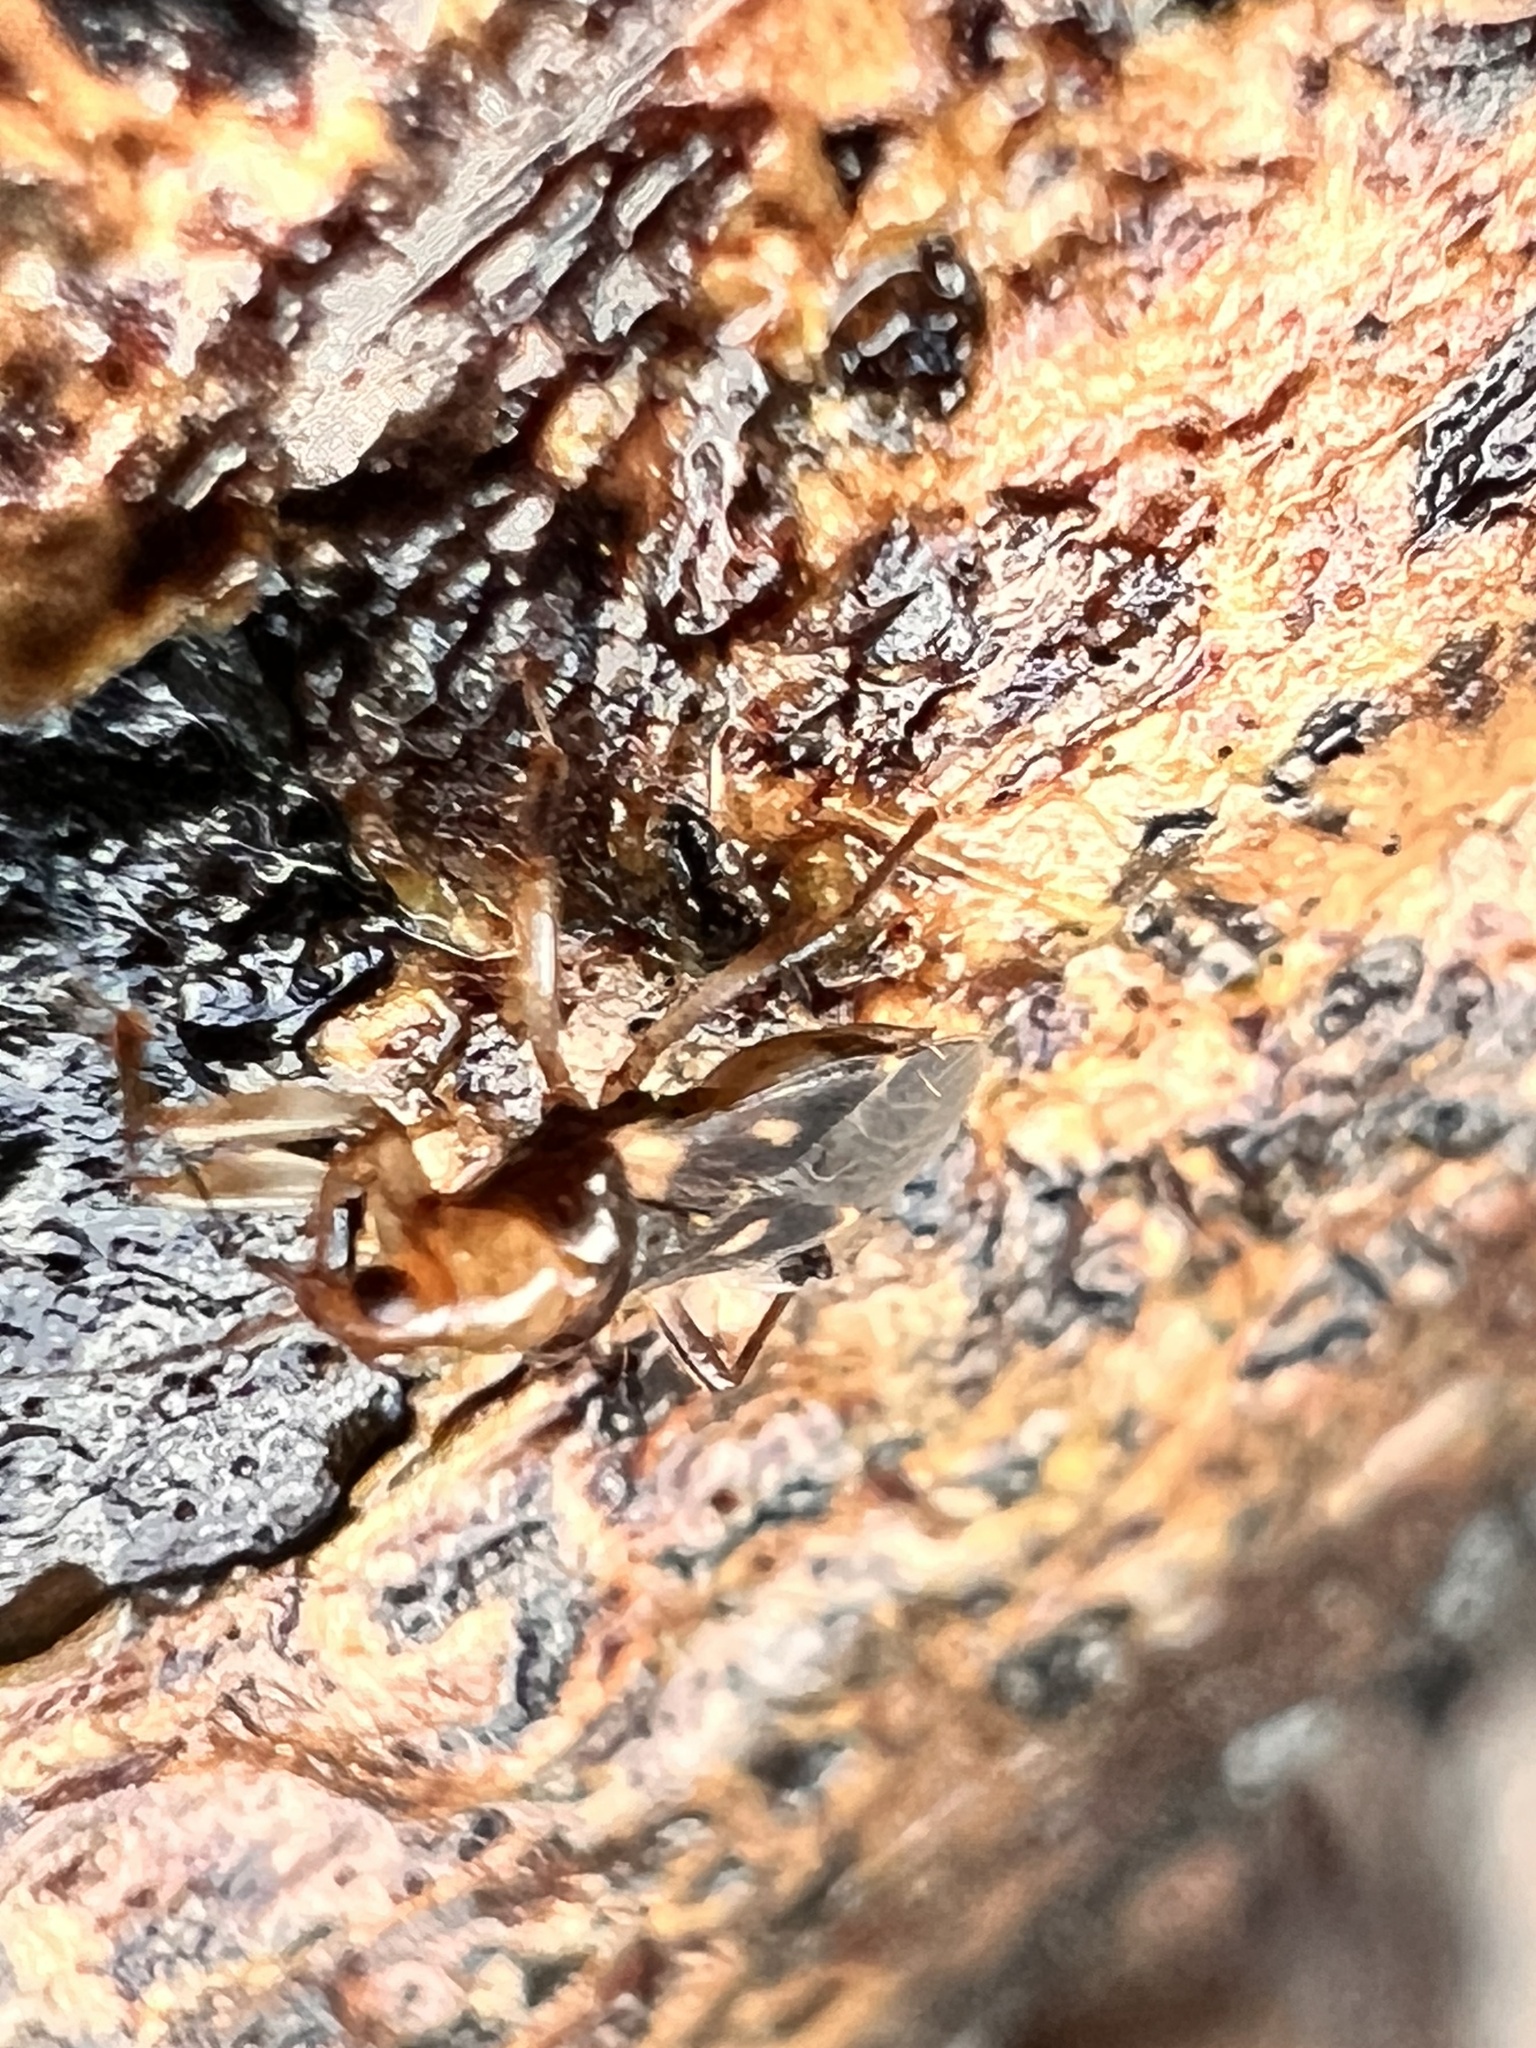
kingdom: Animalia
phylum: Arthropoda
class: Insecta
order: Hemiptera
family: Nabidae
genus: Alloeorhynchus
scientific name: Alloeorhynchus maculosus
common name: Damsel bug
